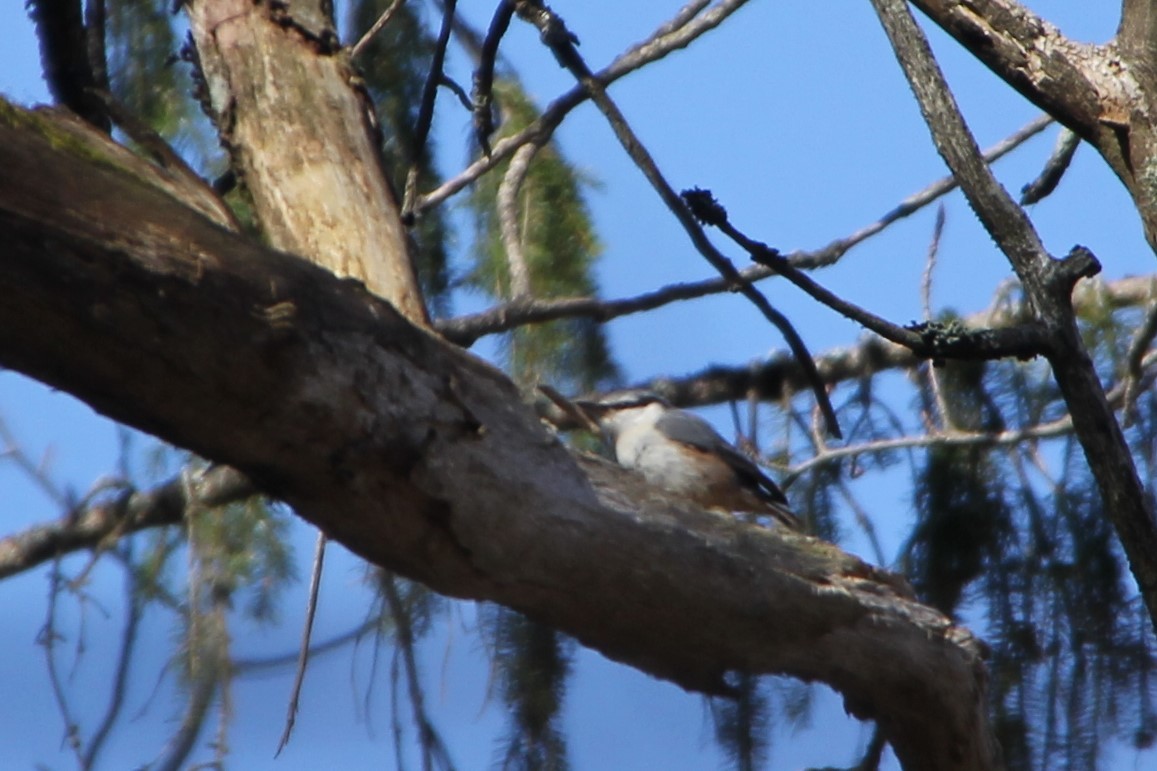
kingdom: Animalia
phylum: Chordata
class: Aves
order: Passeriformes
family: Sittidae
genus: Sitta
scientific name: Sitta europaea
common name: Eurasian nuthatch
